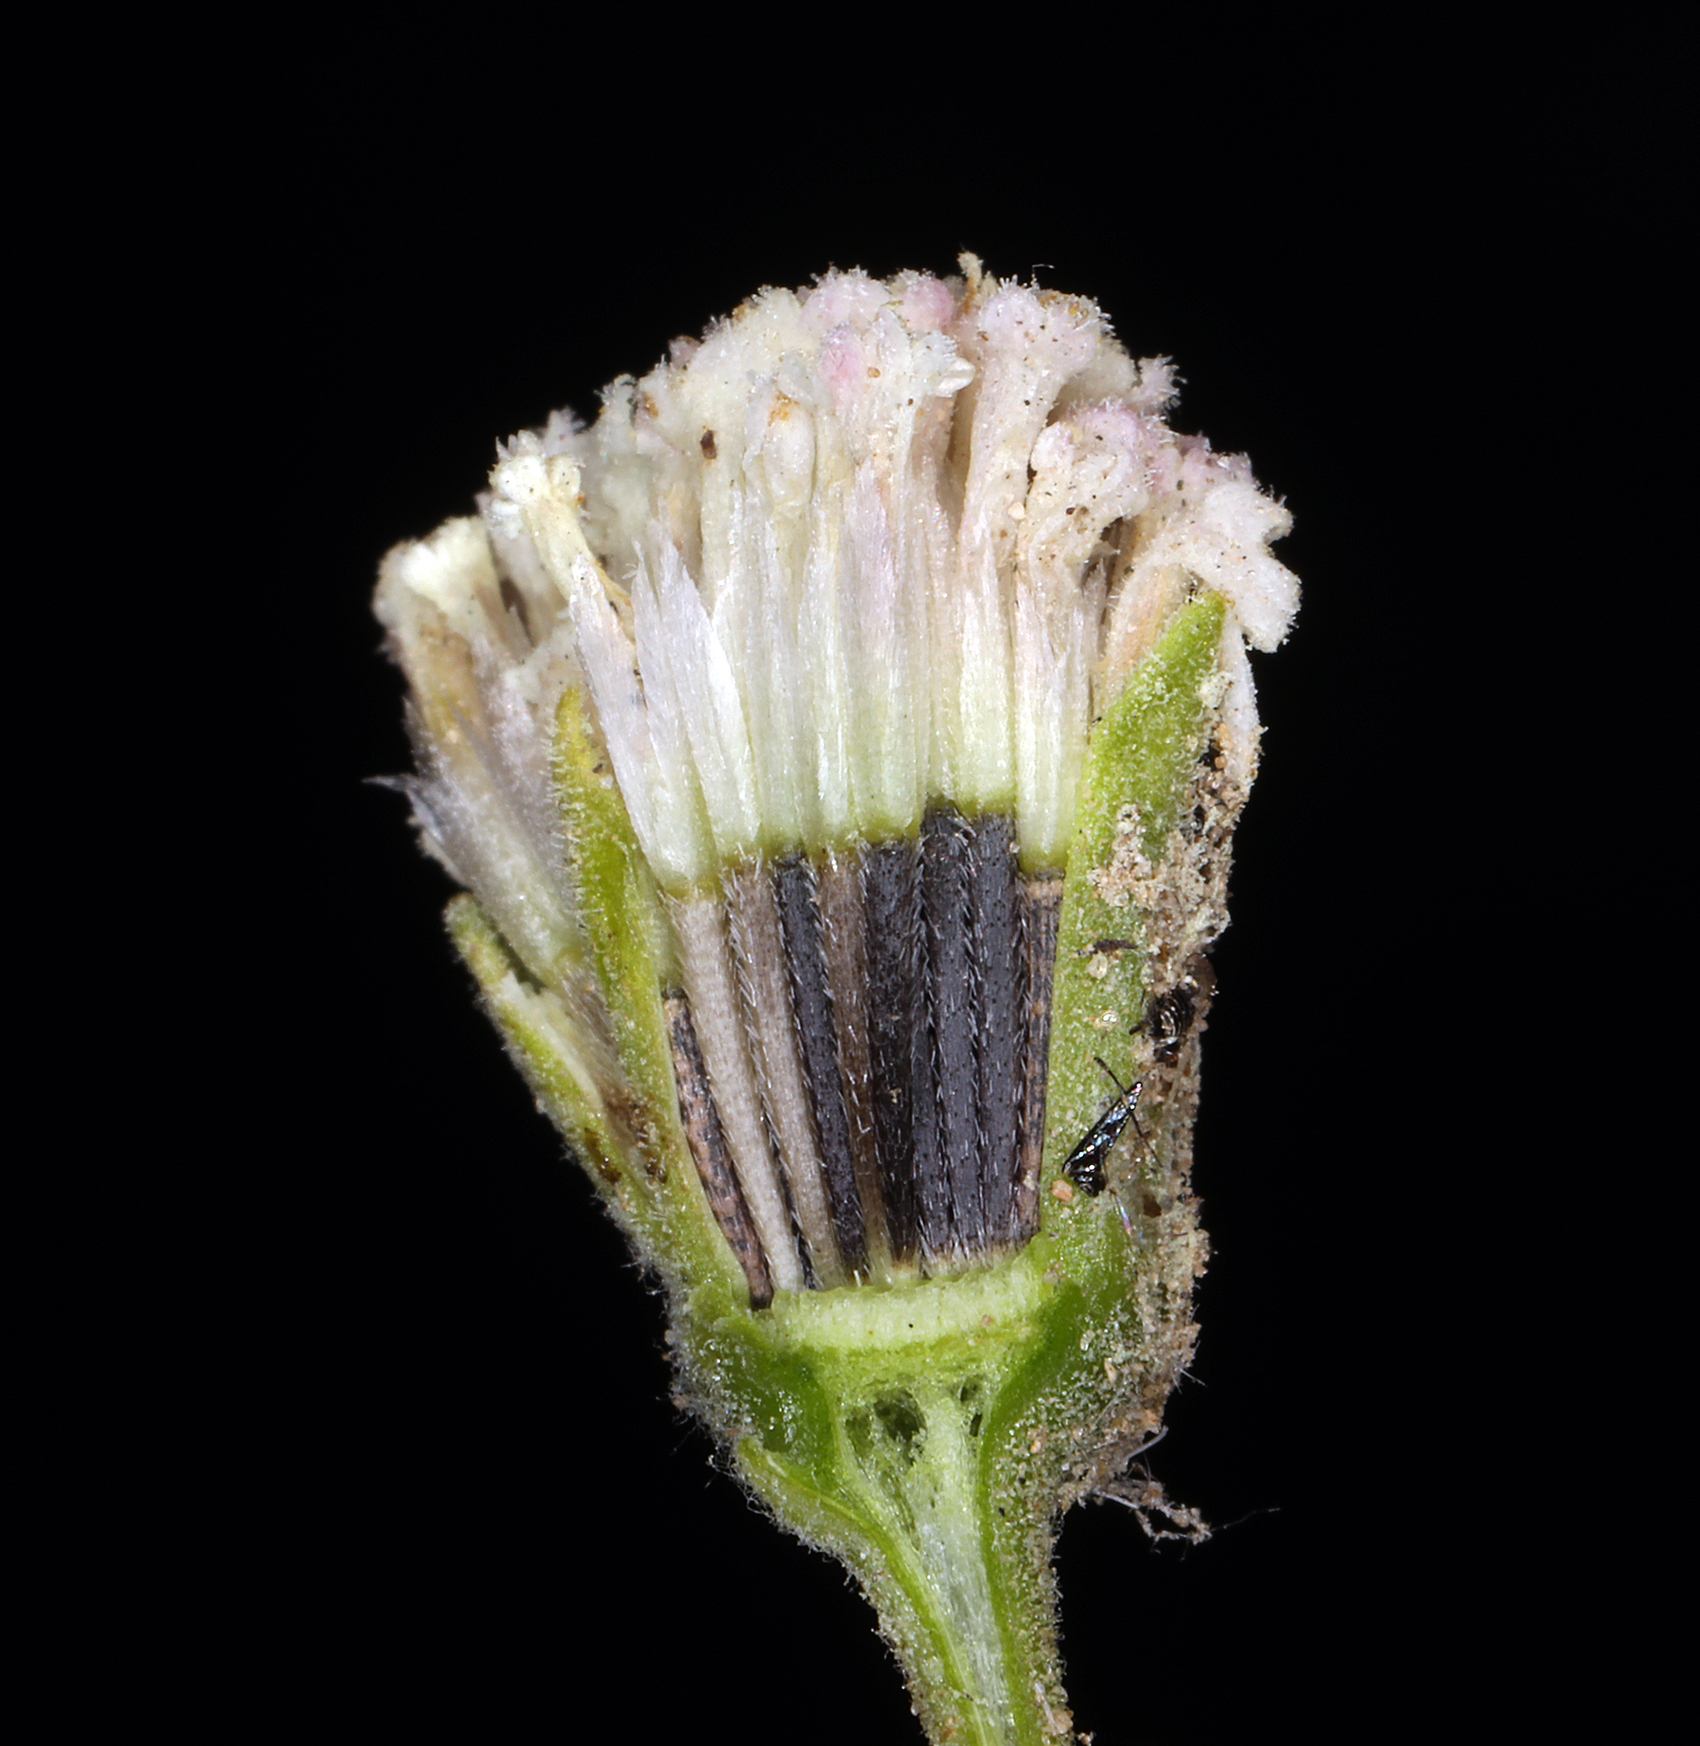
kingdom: Plantae
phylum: Tracheophyta
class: Magnoliopsida
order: Asterales
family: Asteraceae
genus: Chaenactis
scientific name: Chaenactis stevioides
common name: Desert pincushion
